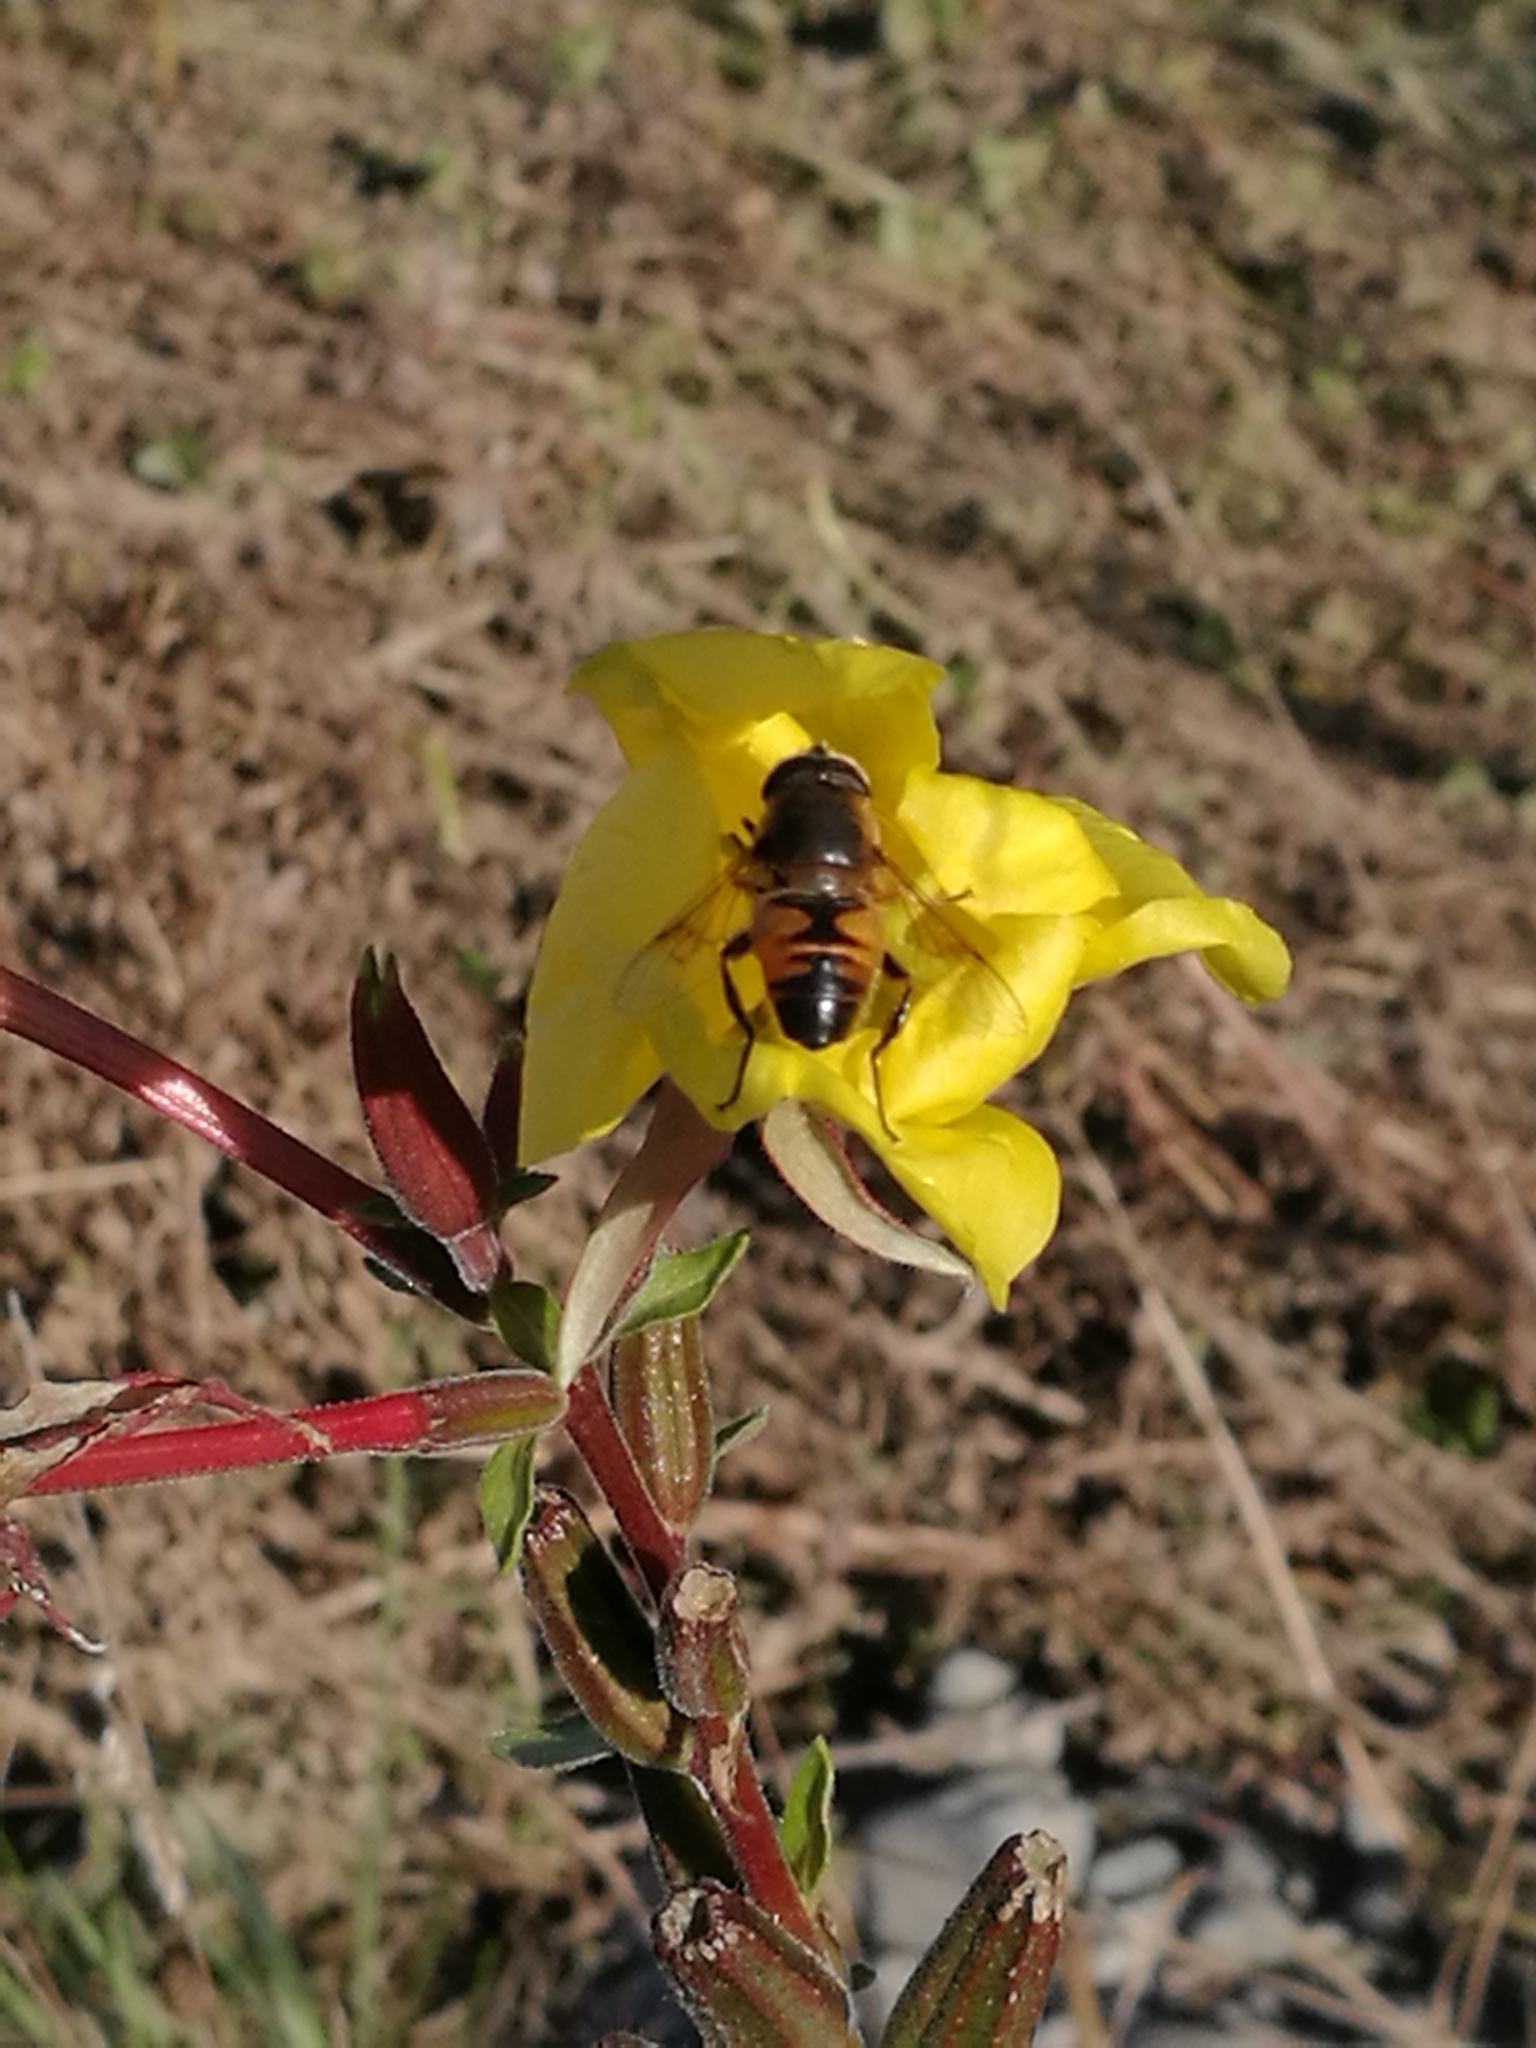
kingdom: Animalia
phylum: Arthropoda
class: Insecta
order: Diptera
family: Syrphidae
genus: Eristalis
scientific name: Eristalis tenax
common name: Drone fly
